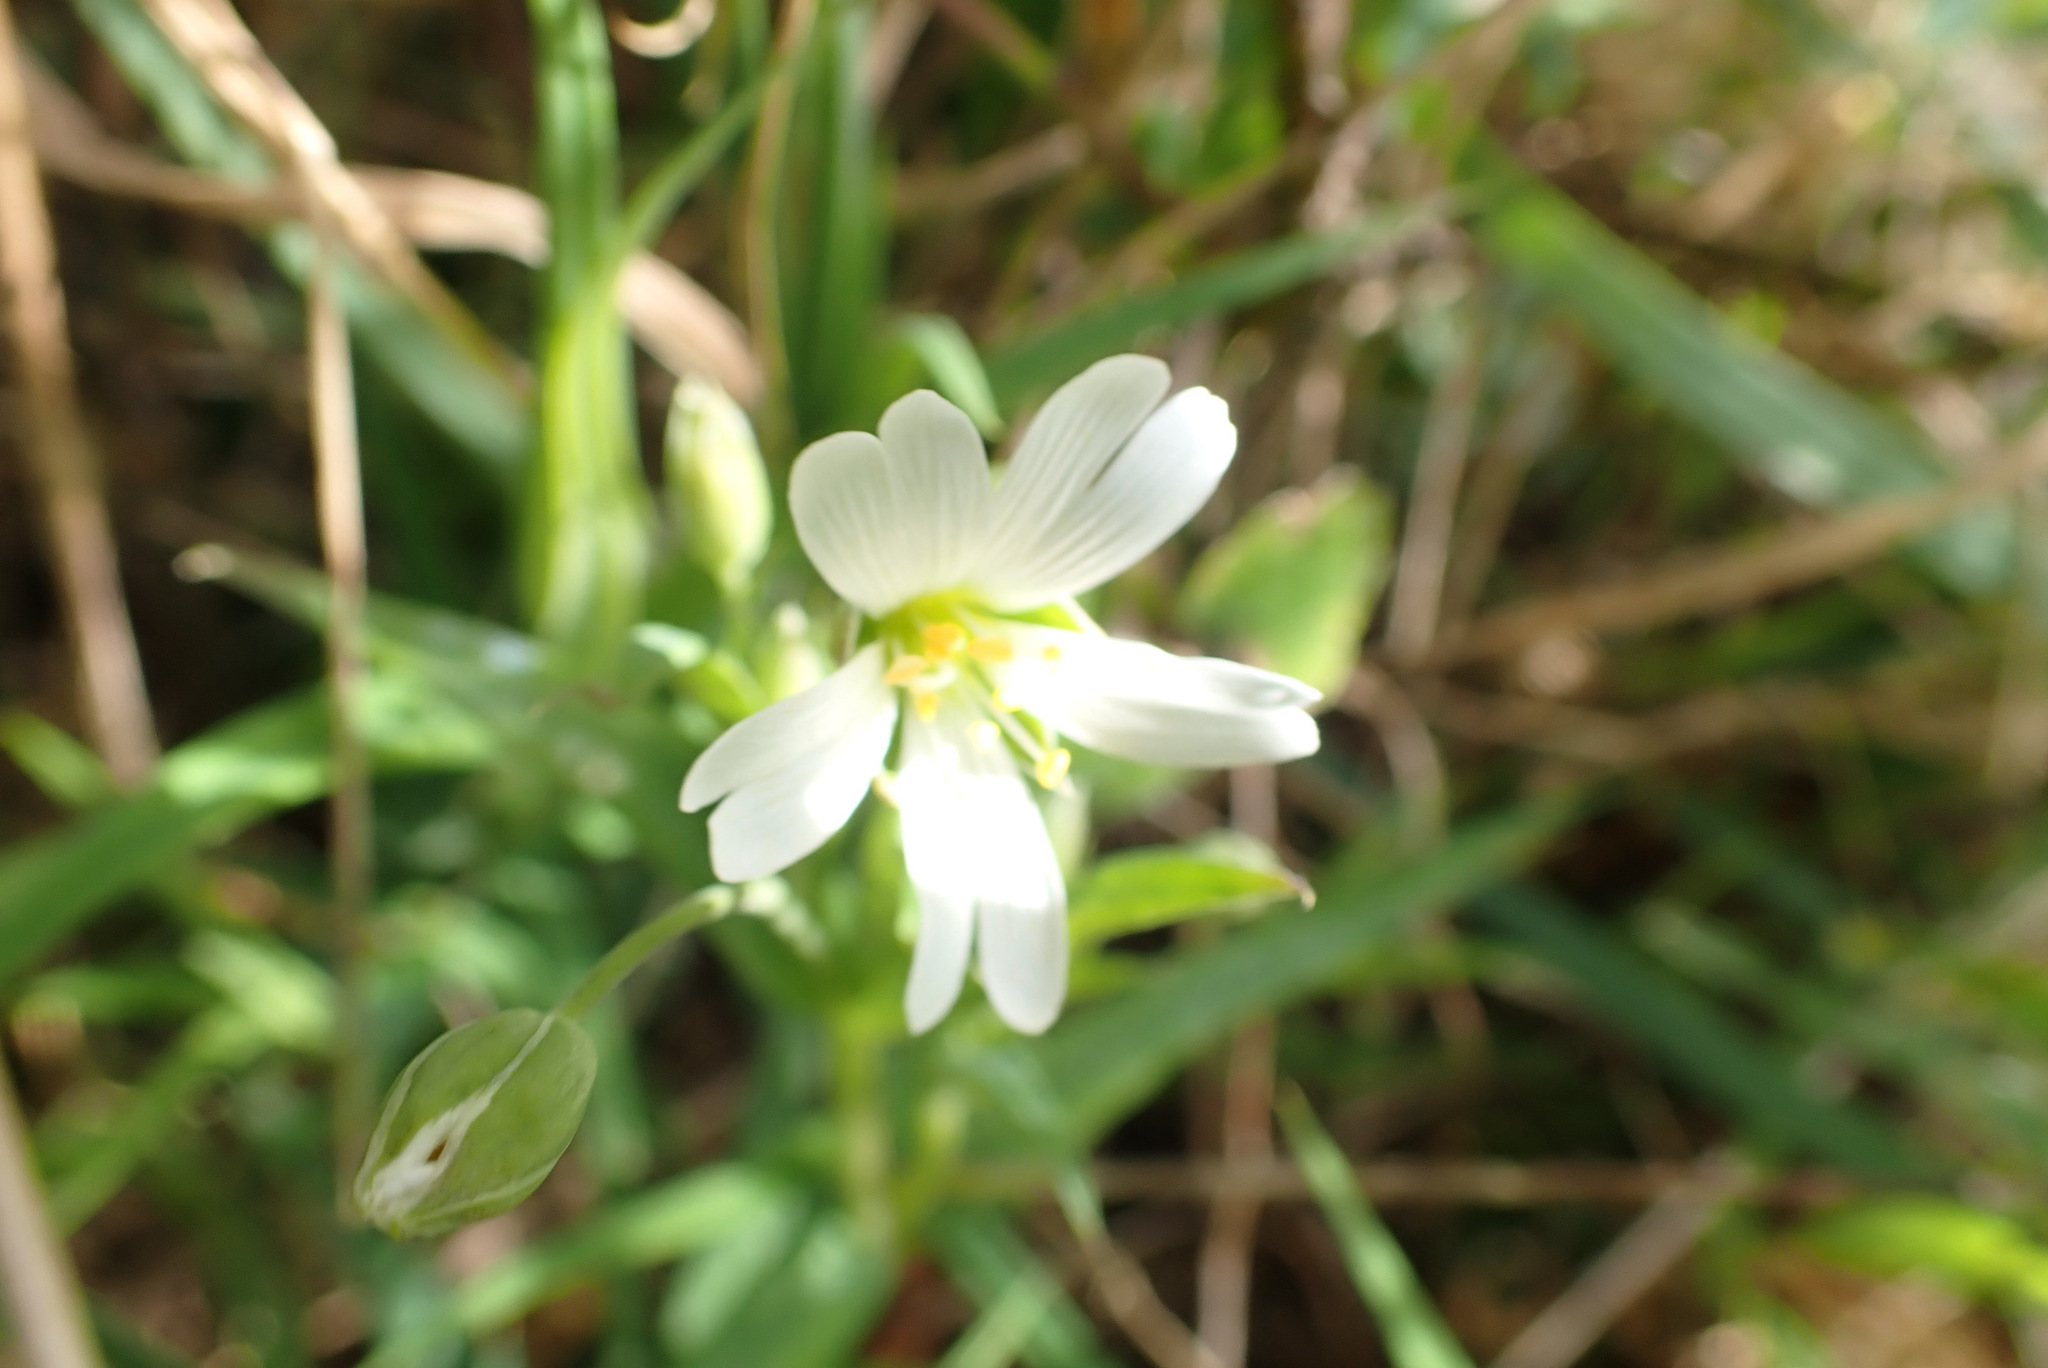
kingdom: Plantae
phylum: Tracheophyta
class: Magnoliopsida
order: Caryophyllales
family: Caryophyllaceae
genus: Rabelera
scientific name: Rabelera holostea
